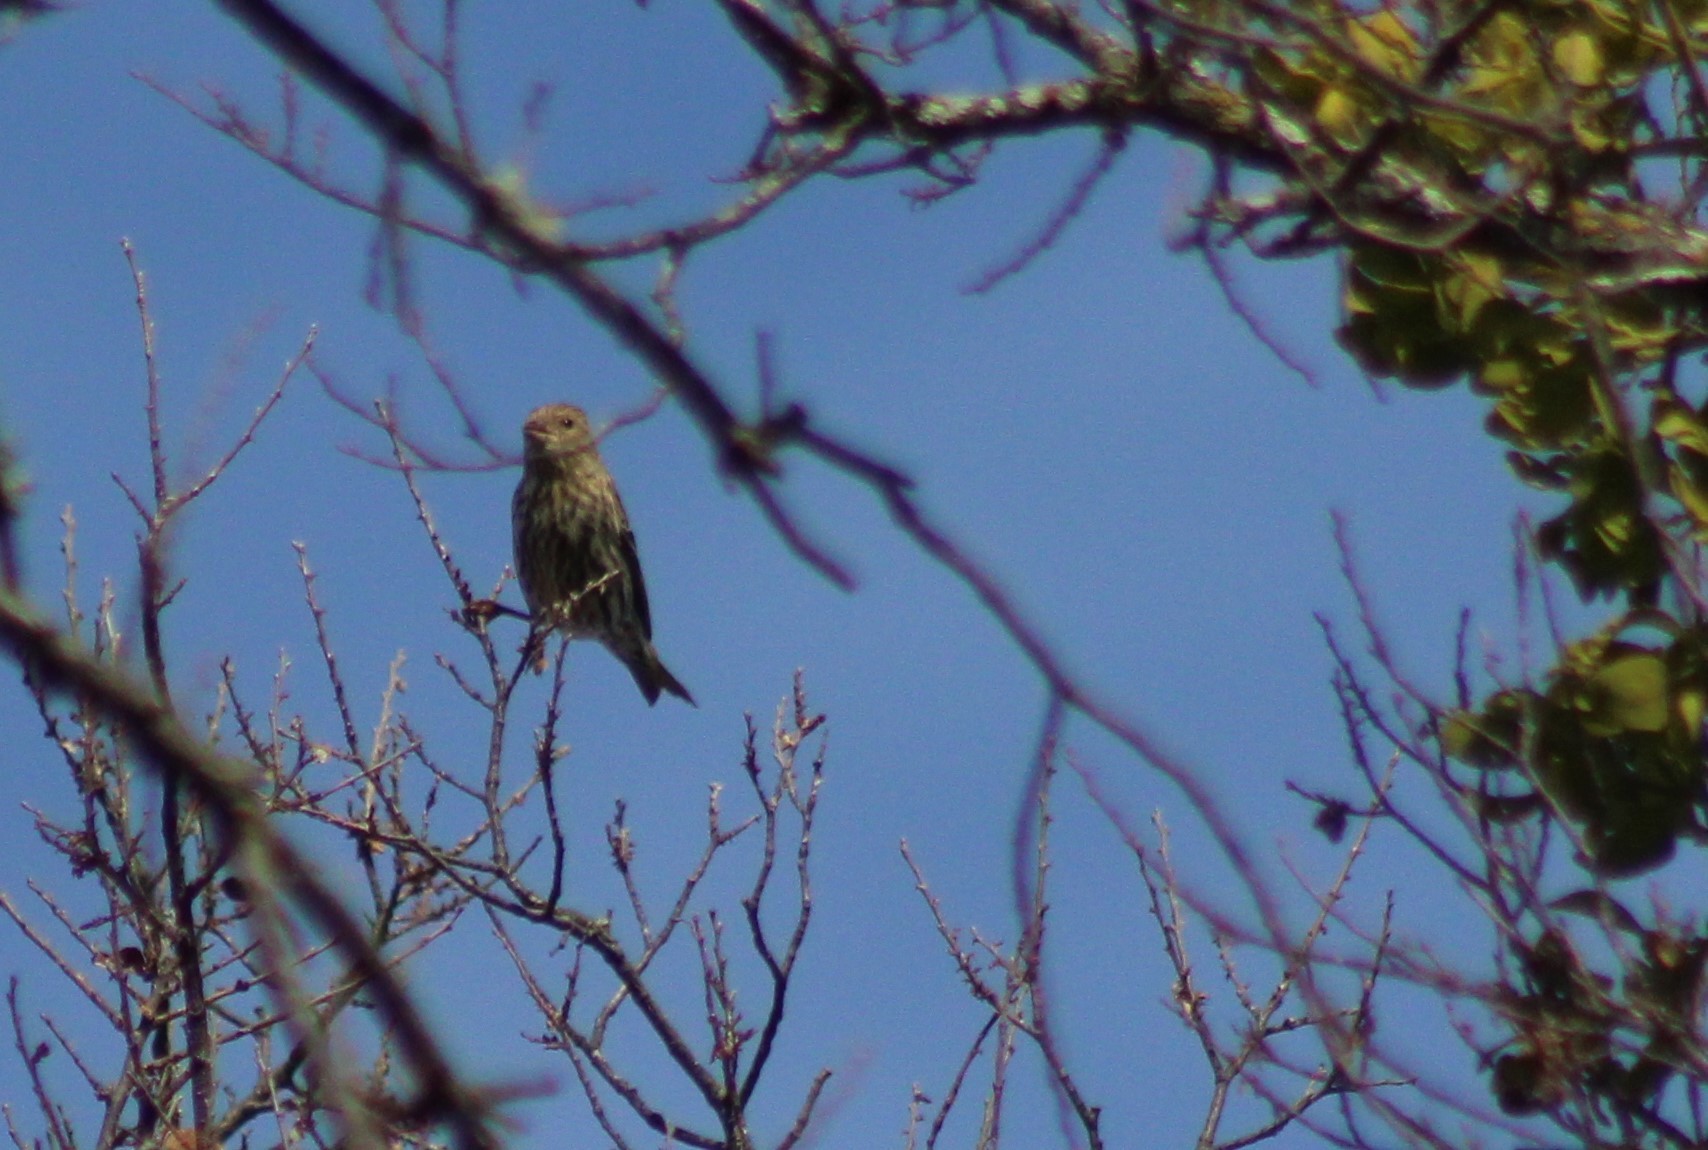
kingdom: Animalia
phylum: Chordata
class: Aves
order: Passeriformes
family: Fringillidae
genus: Spinus
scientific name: Spinus pinus
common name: Pine siskin
